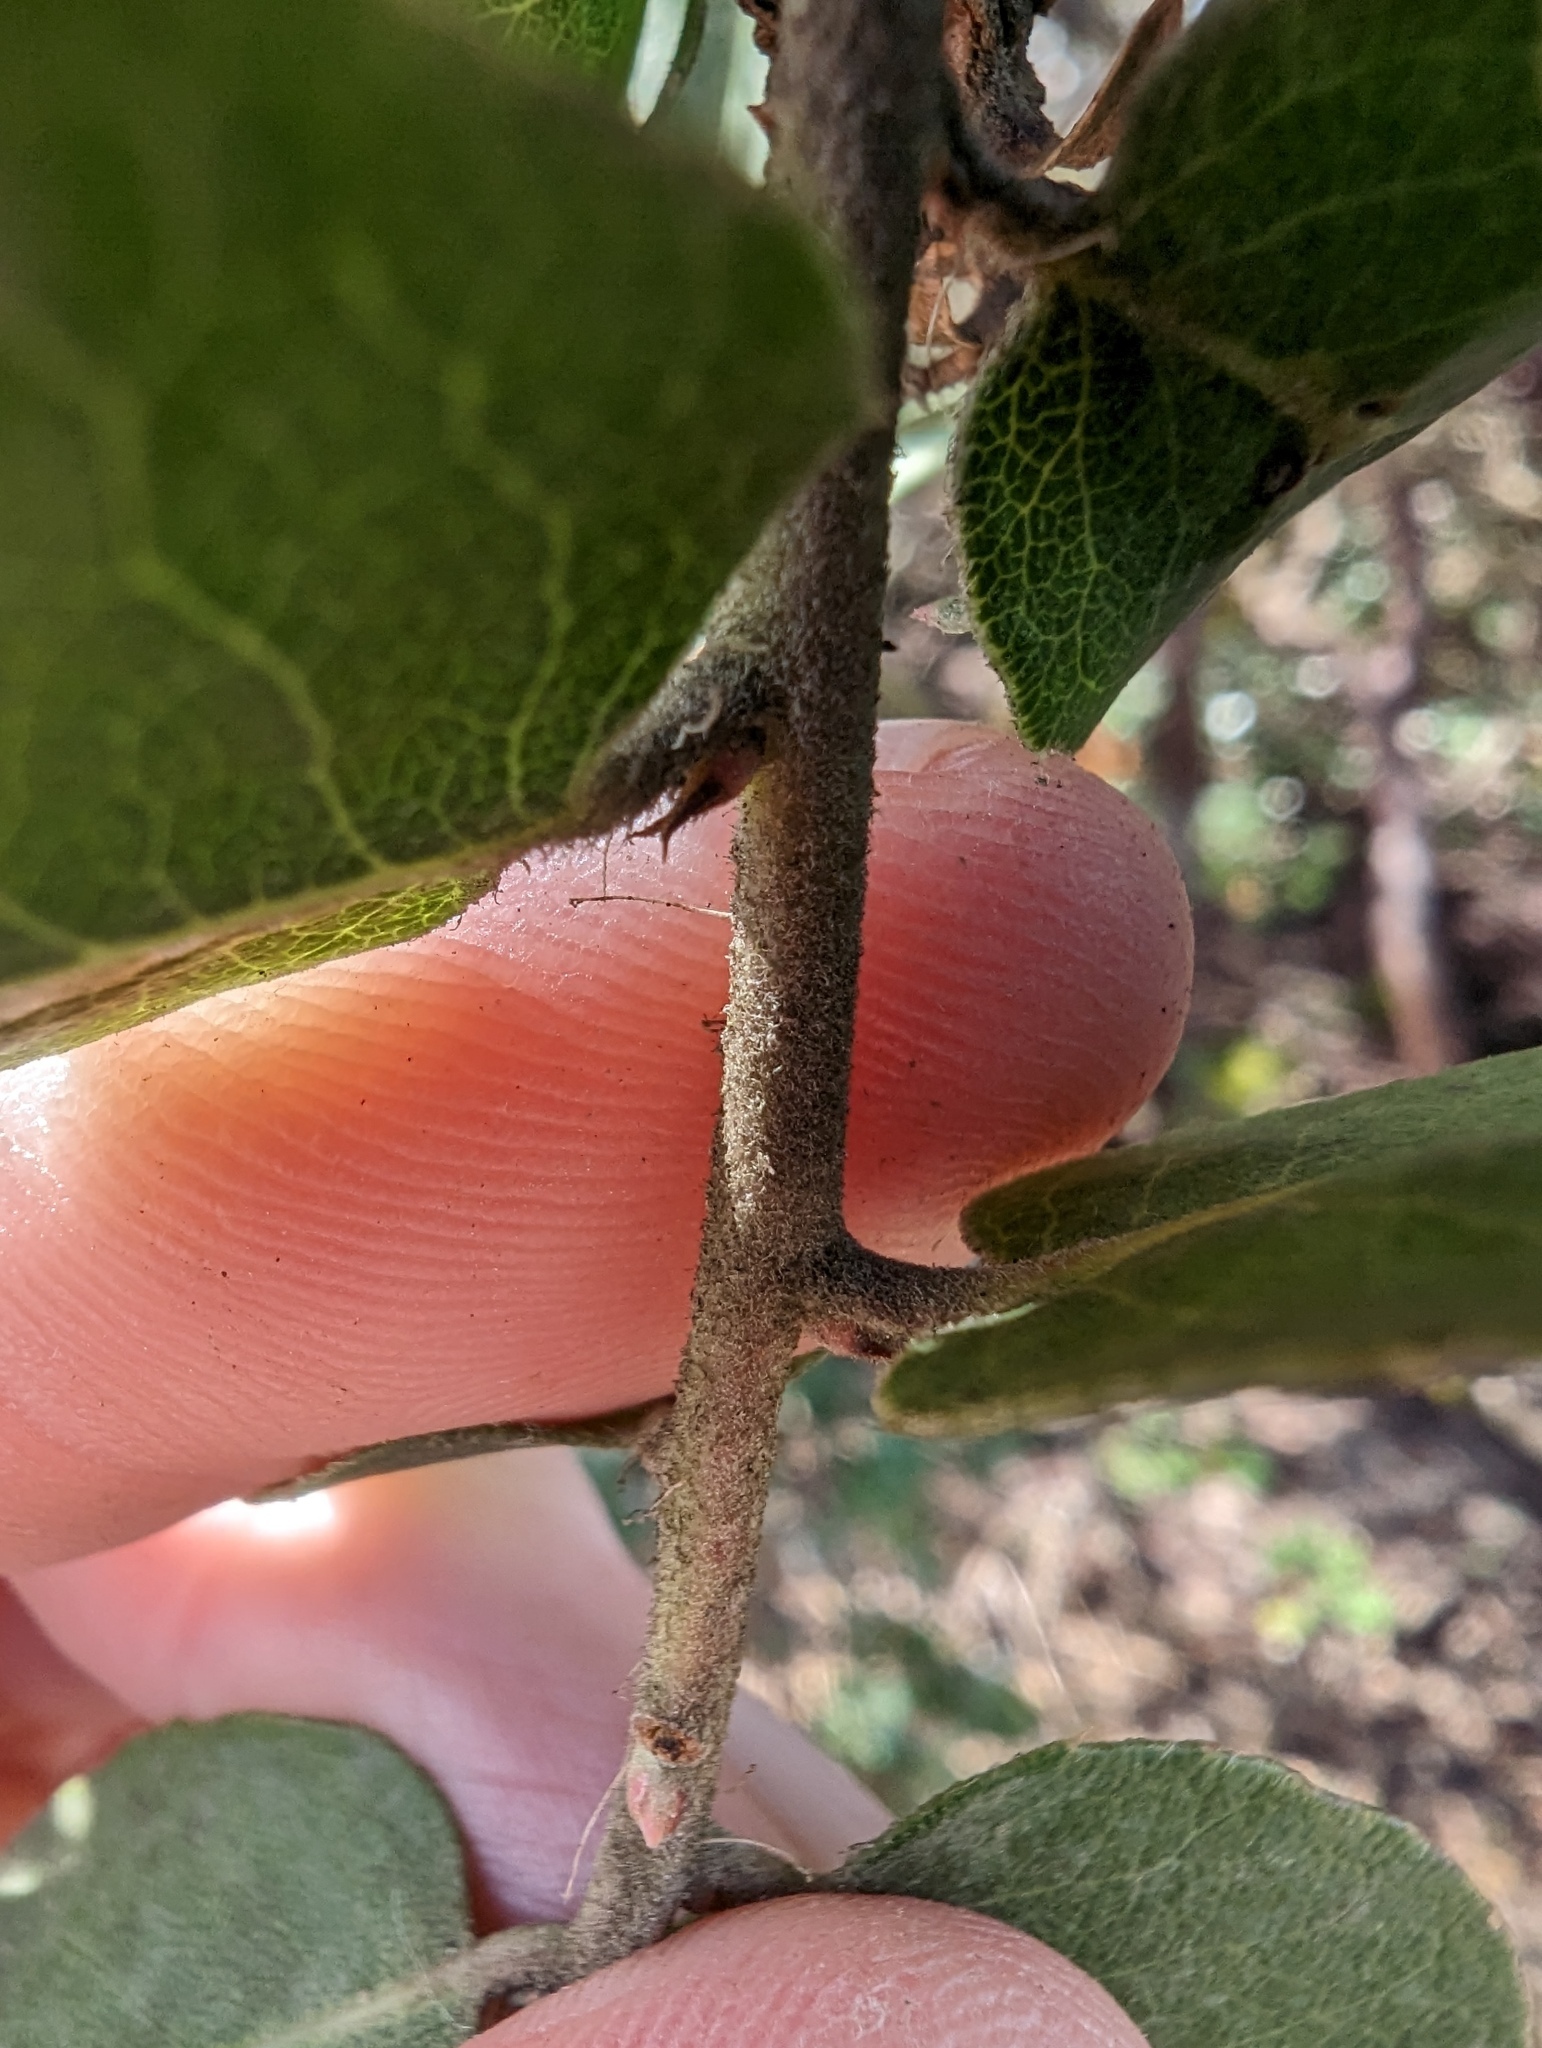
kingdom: Plantae
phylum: Tracheophyta
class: Magnoliopsida
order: Ericales
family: Ericaceae
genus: Arctostaphylos
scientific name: Arctostaphylos crustacea
